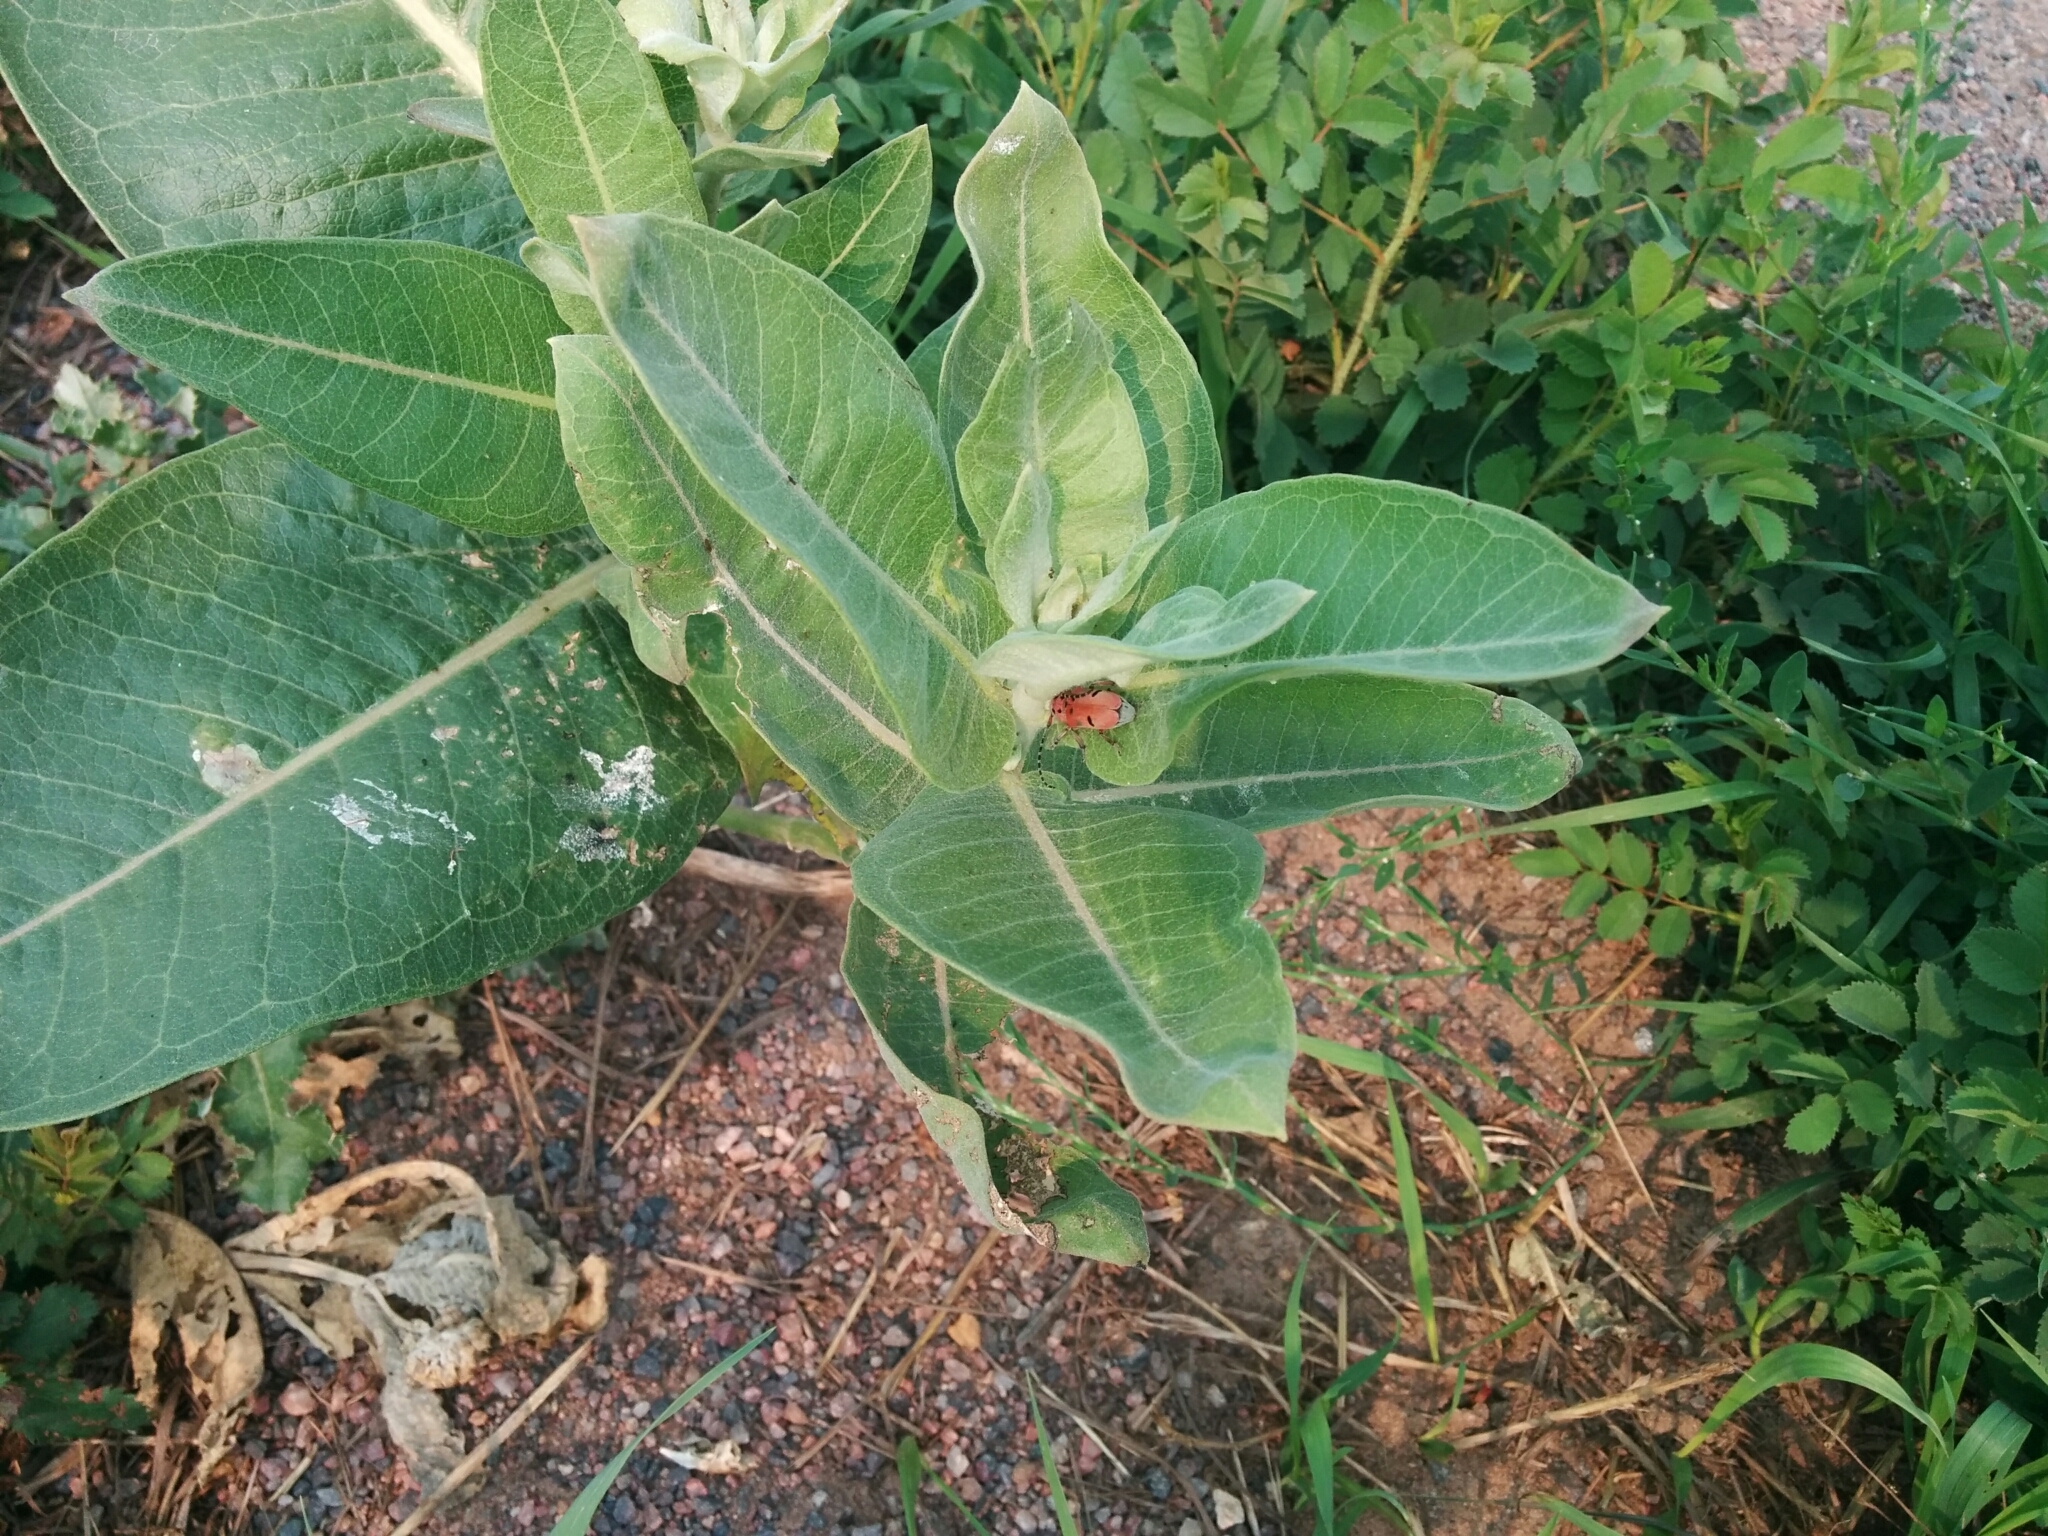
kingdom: Animalia
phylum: Arthropoda
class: Insecta
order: Coleoptera
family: Cerambycidae
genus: Tetraopes
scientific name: Tetraopes femoratus
